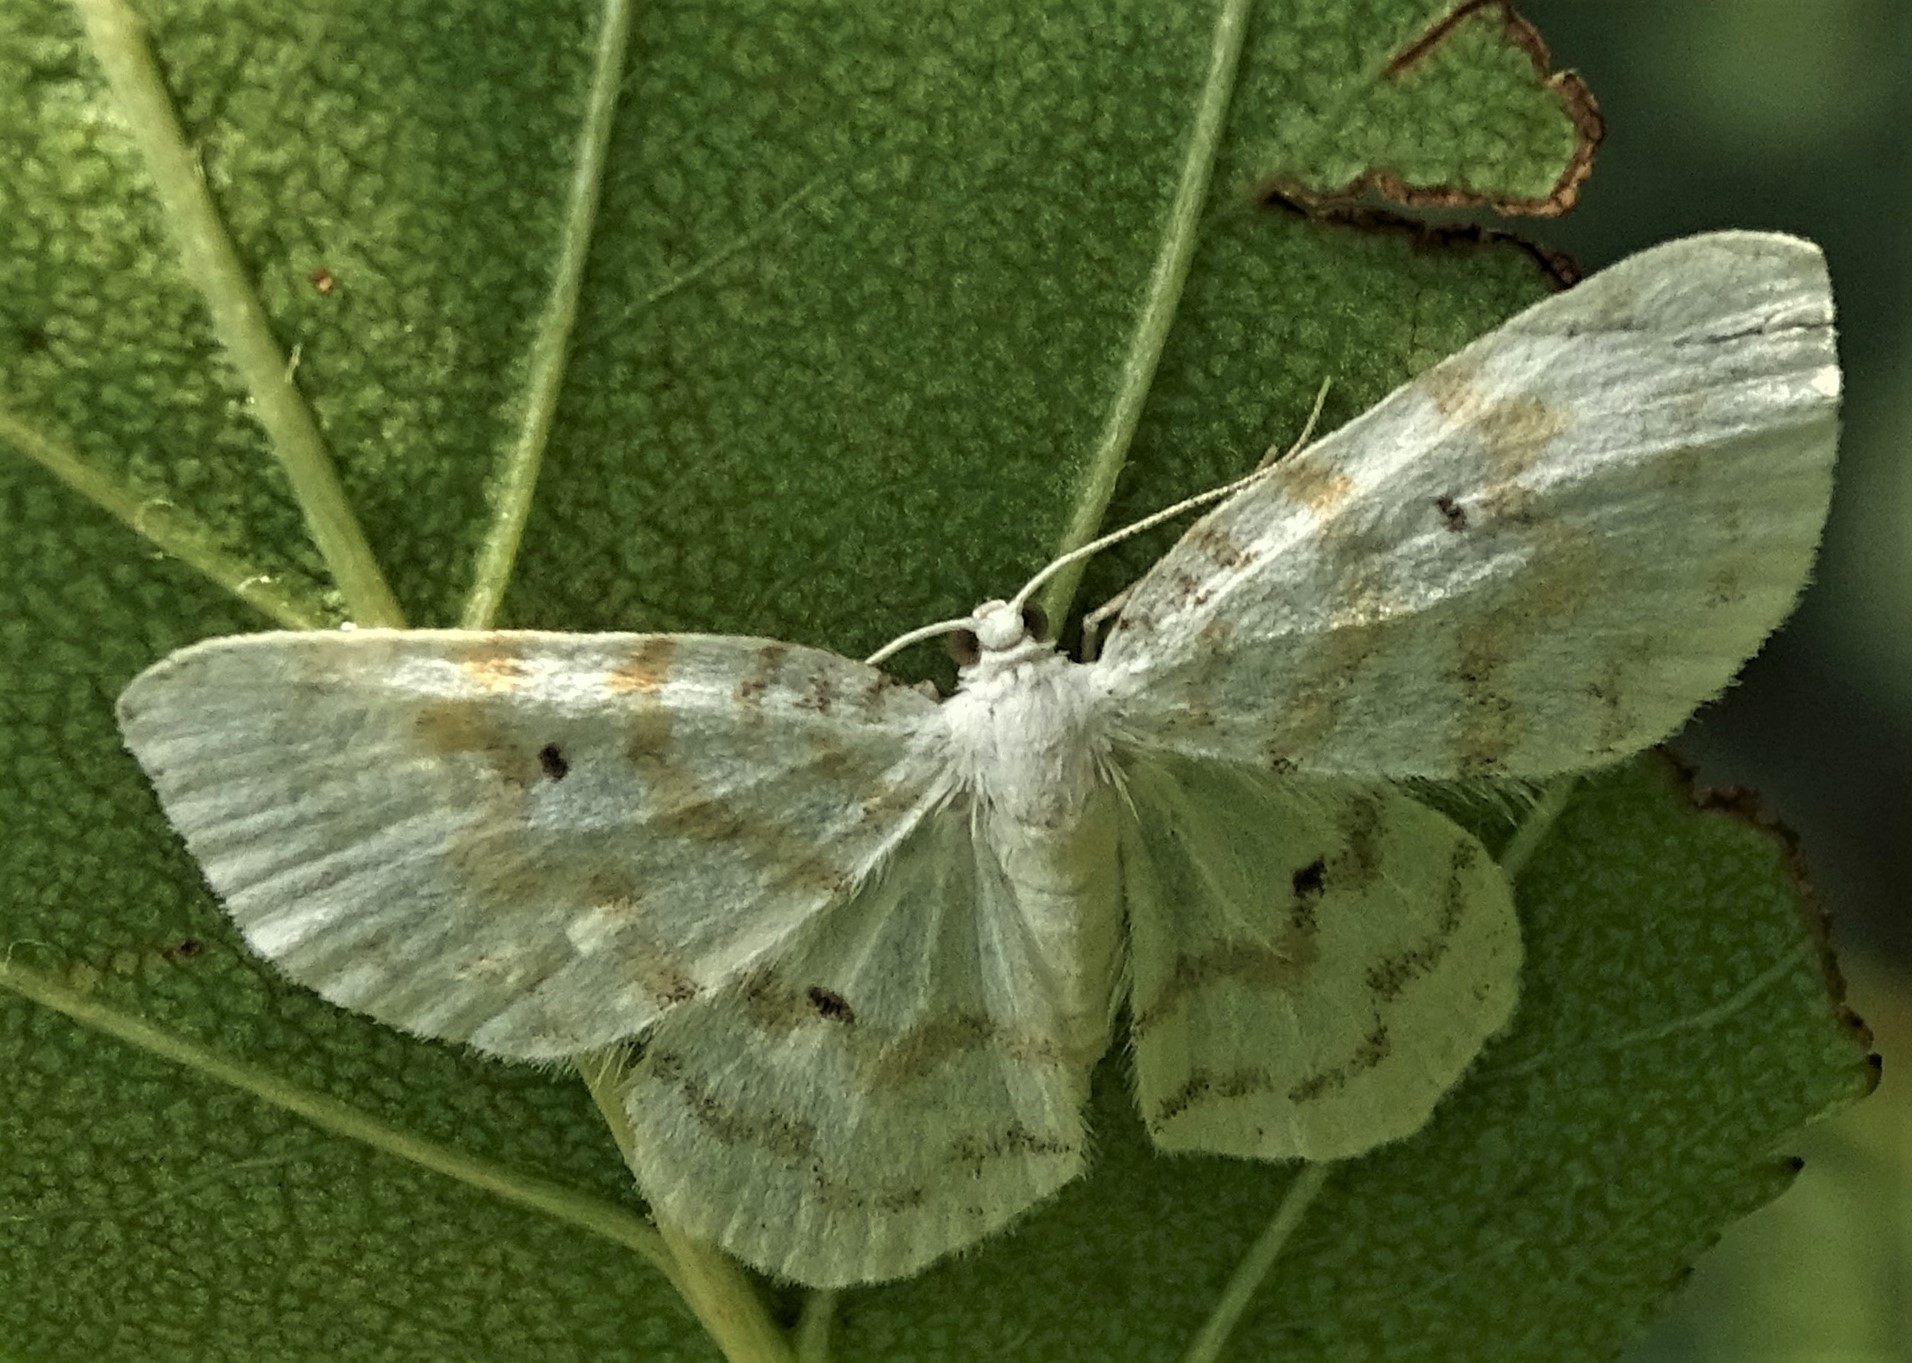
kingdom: Animalia
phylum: Arthropoda
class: Insecta
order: Lepidoptera
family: Geometridae
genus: Hydrelia
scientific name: Hydrelia albifera
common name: Fragile white carpet
